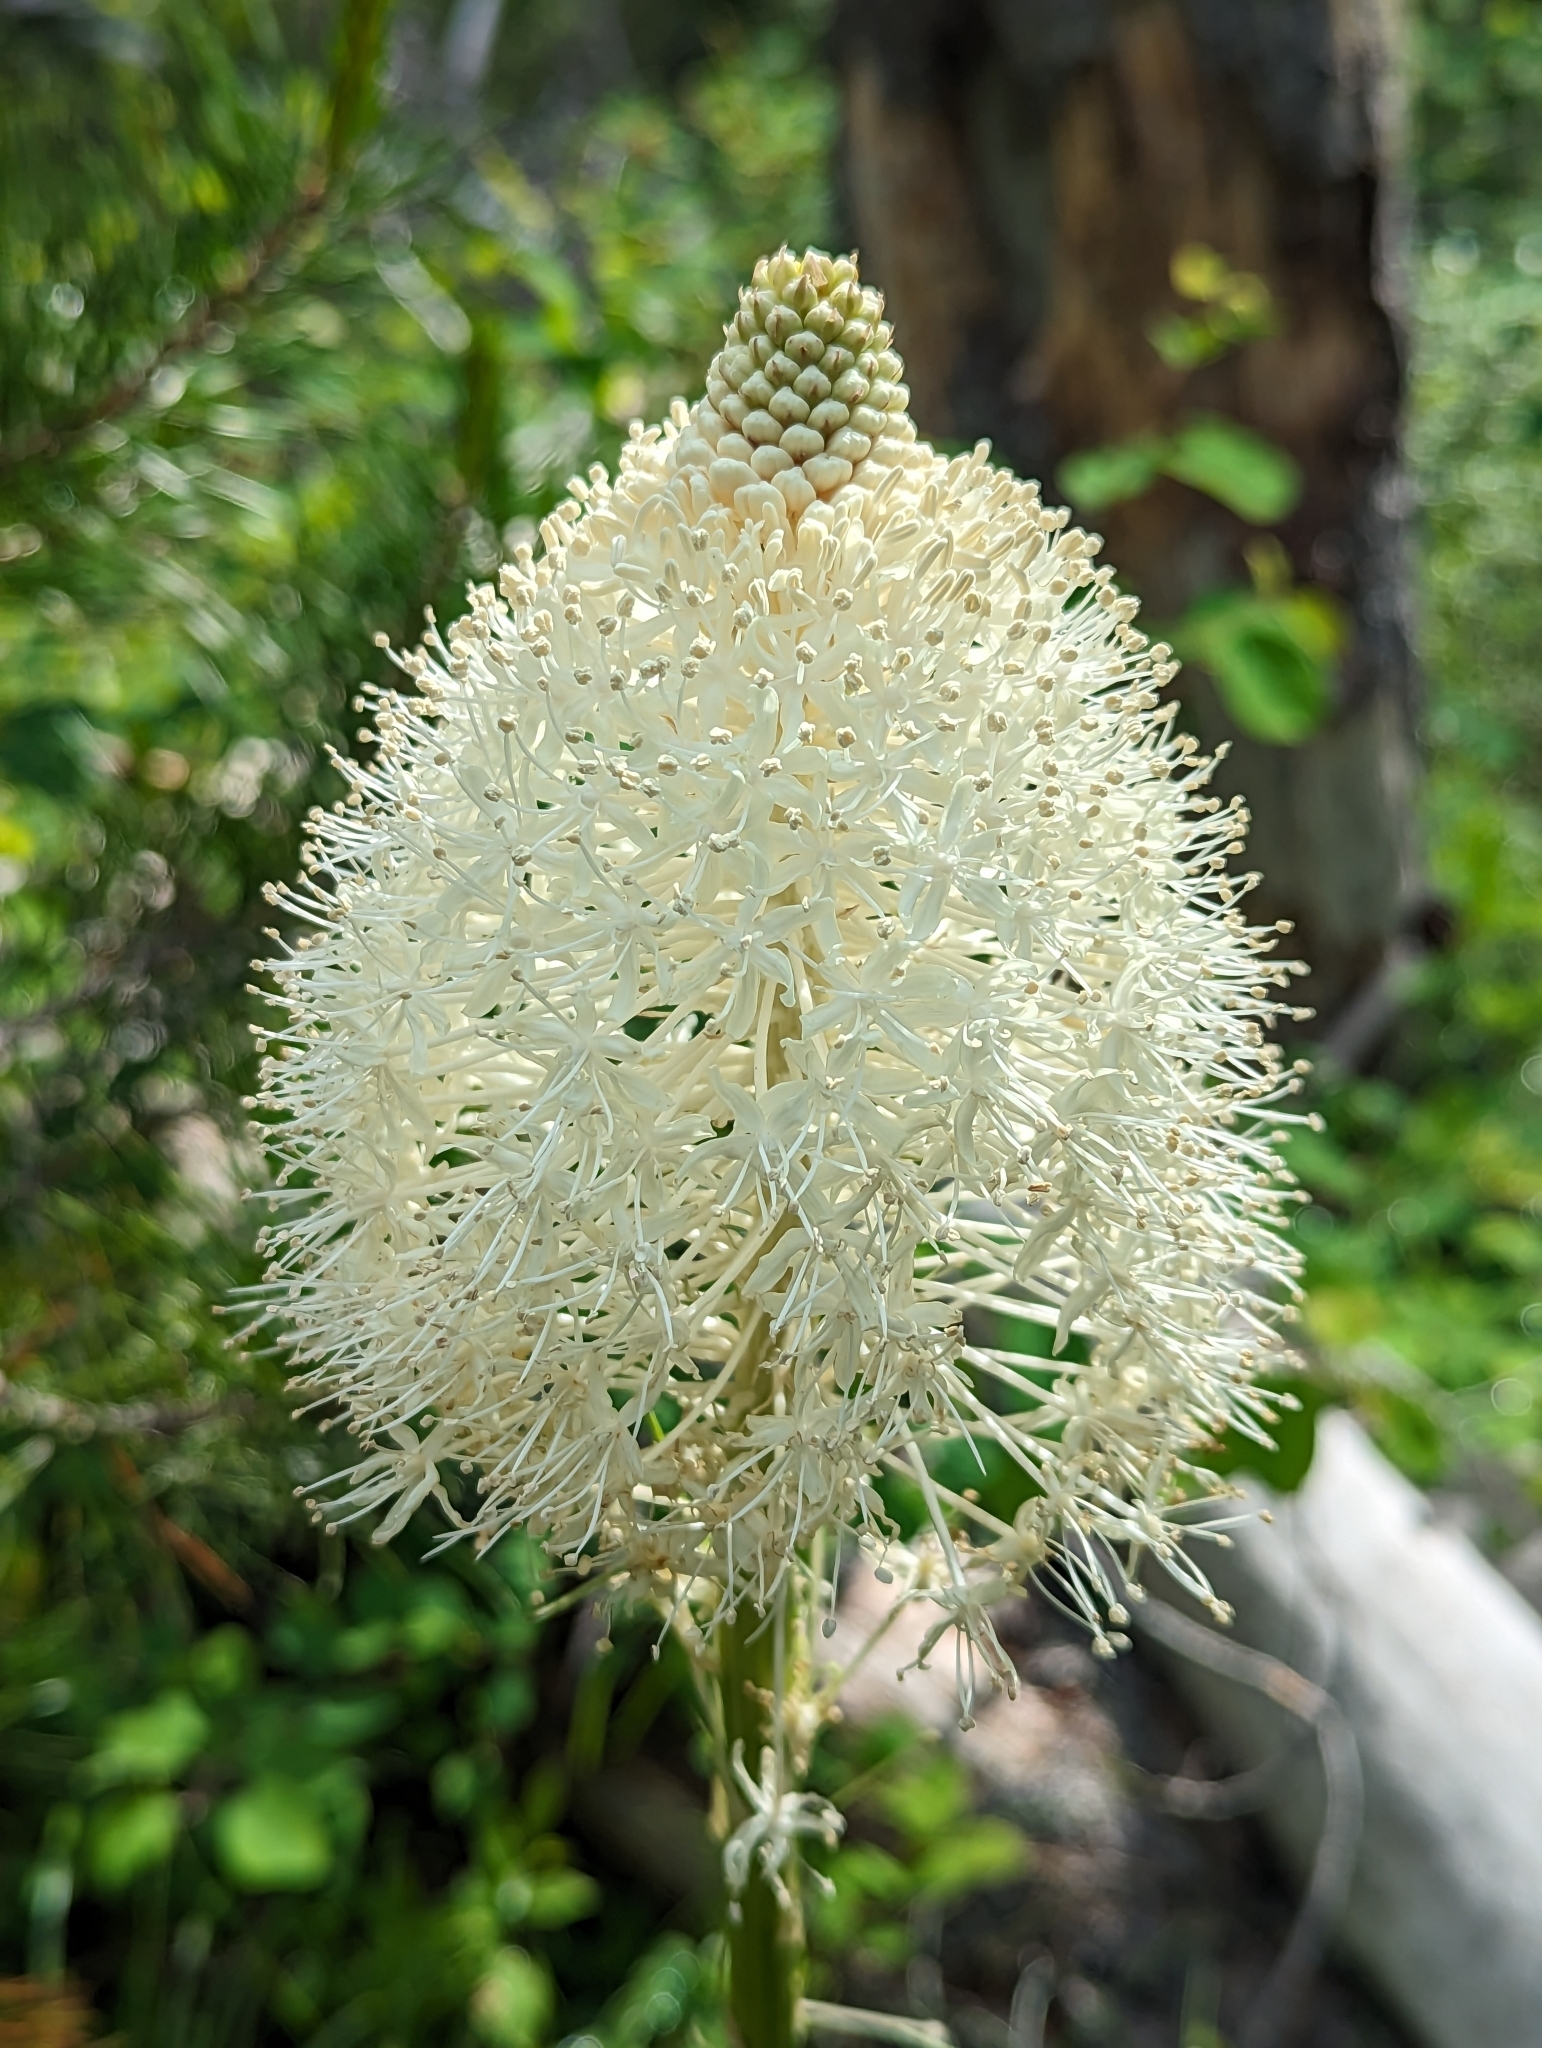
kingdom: Plantae
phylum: Tracheophyta
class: Liliopsida
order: Liliales
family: Melanthiaceae
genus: Xerophyllum
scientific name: Xerophyllum tenax
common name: Bear-grass
